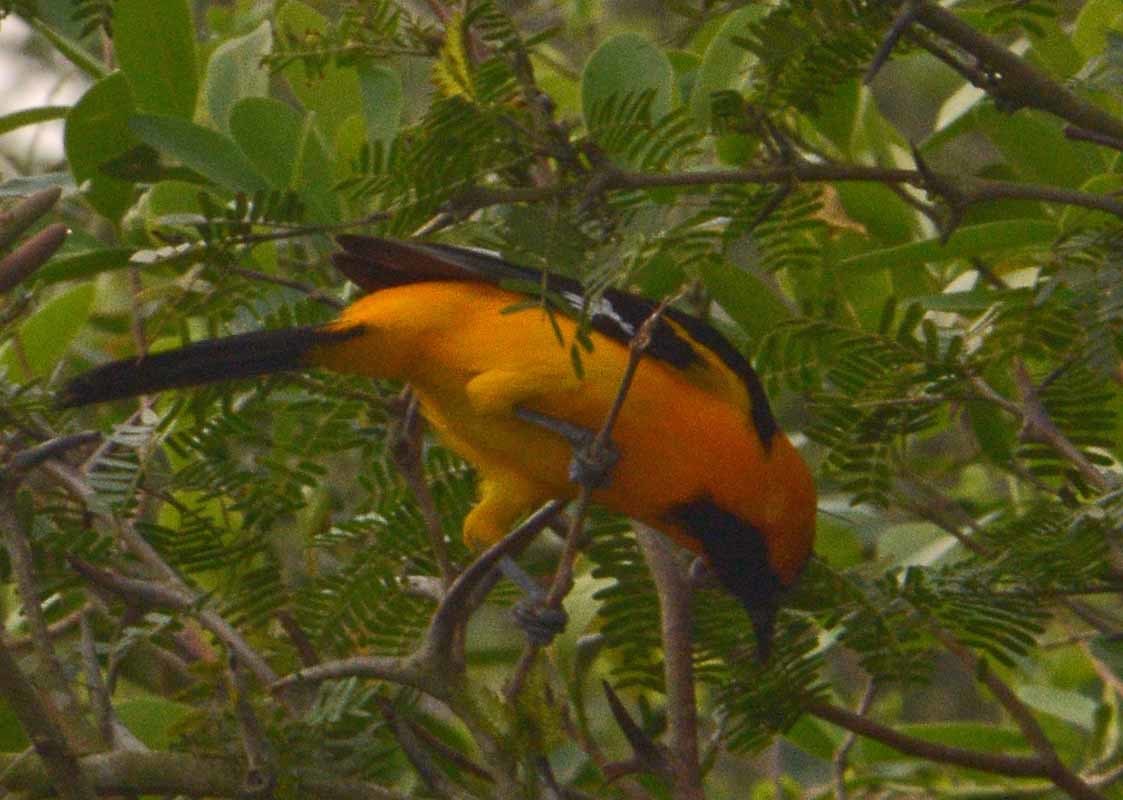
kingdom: Animalia
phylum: Chordata
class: Aves
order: Passeriformes
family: Icteridae
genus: Icterus
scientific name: Icterus gularis
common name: Altamira oriole
